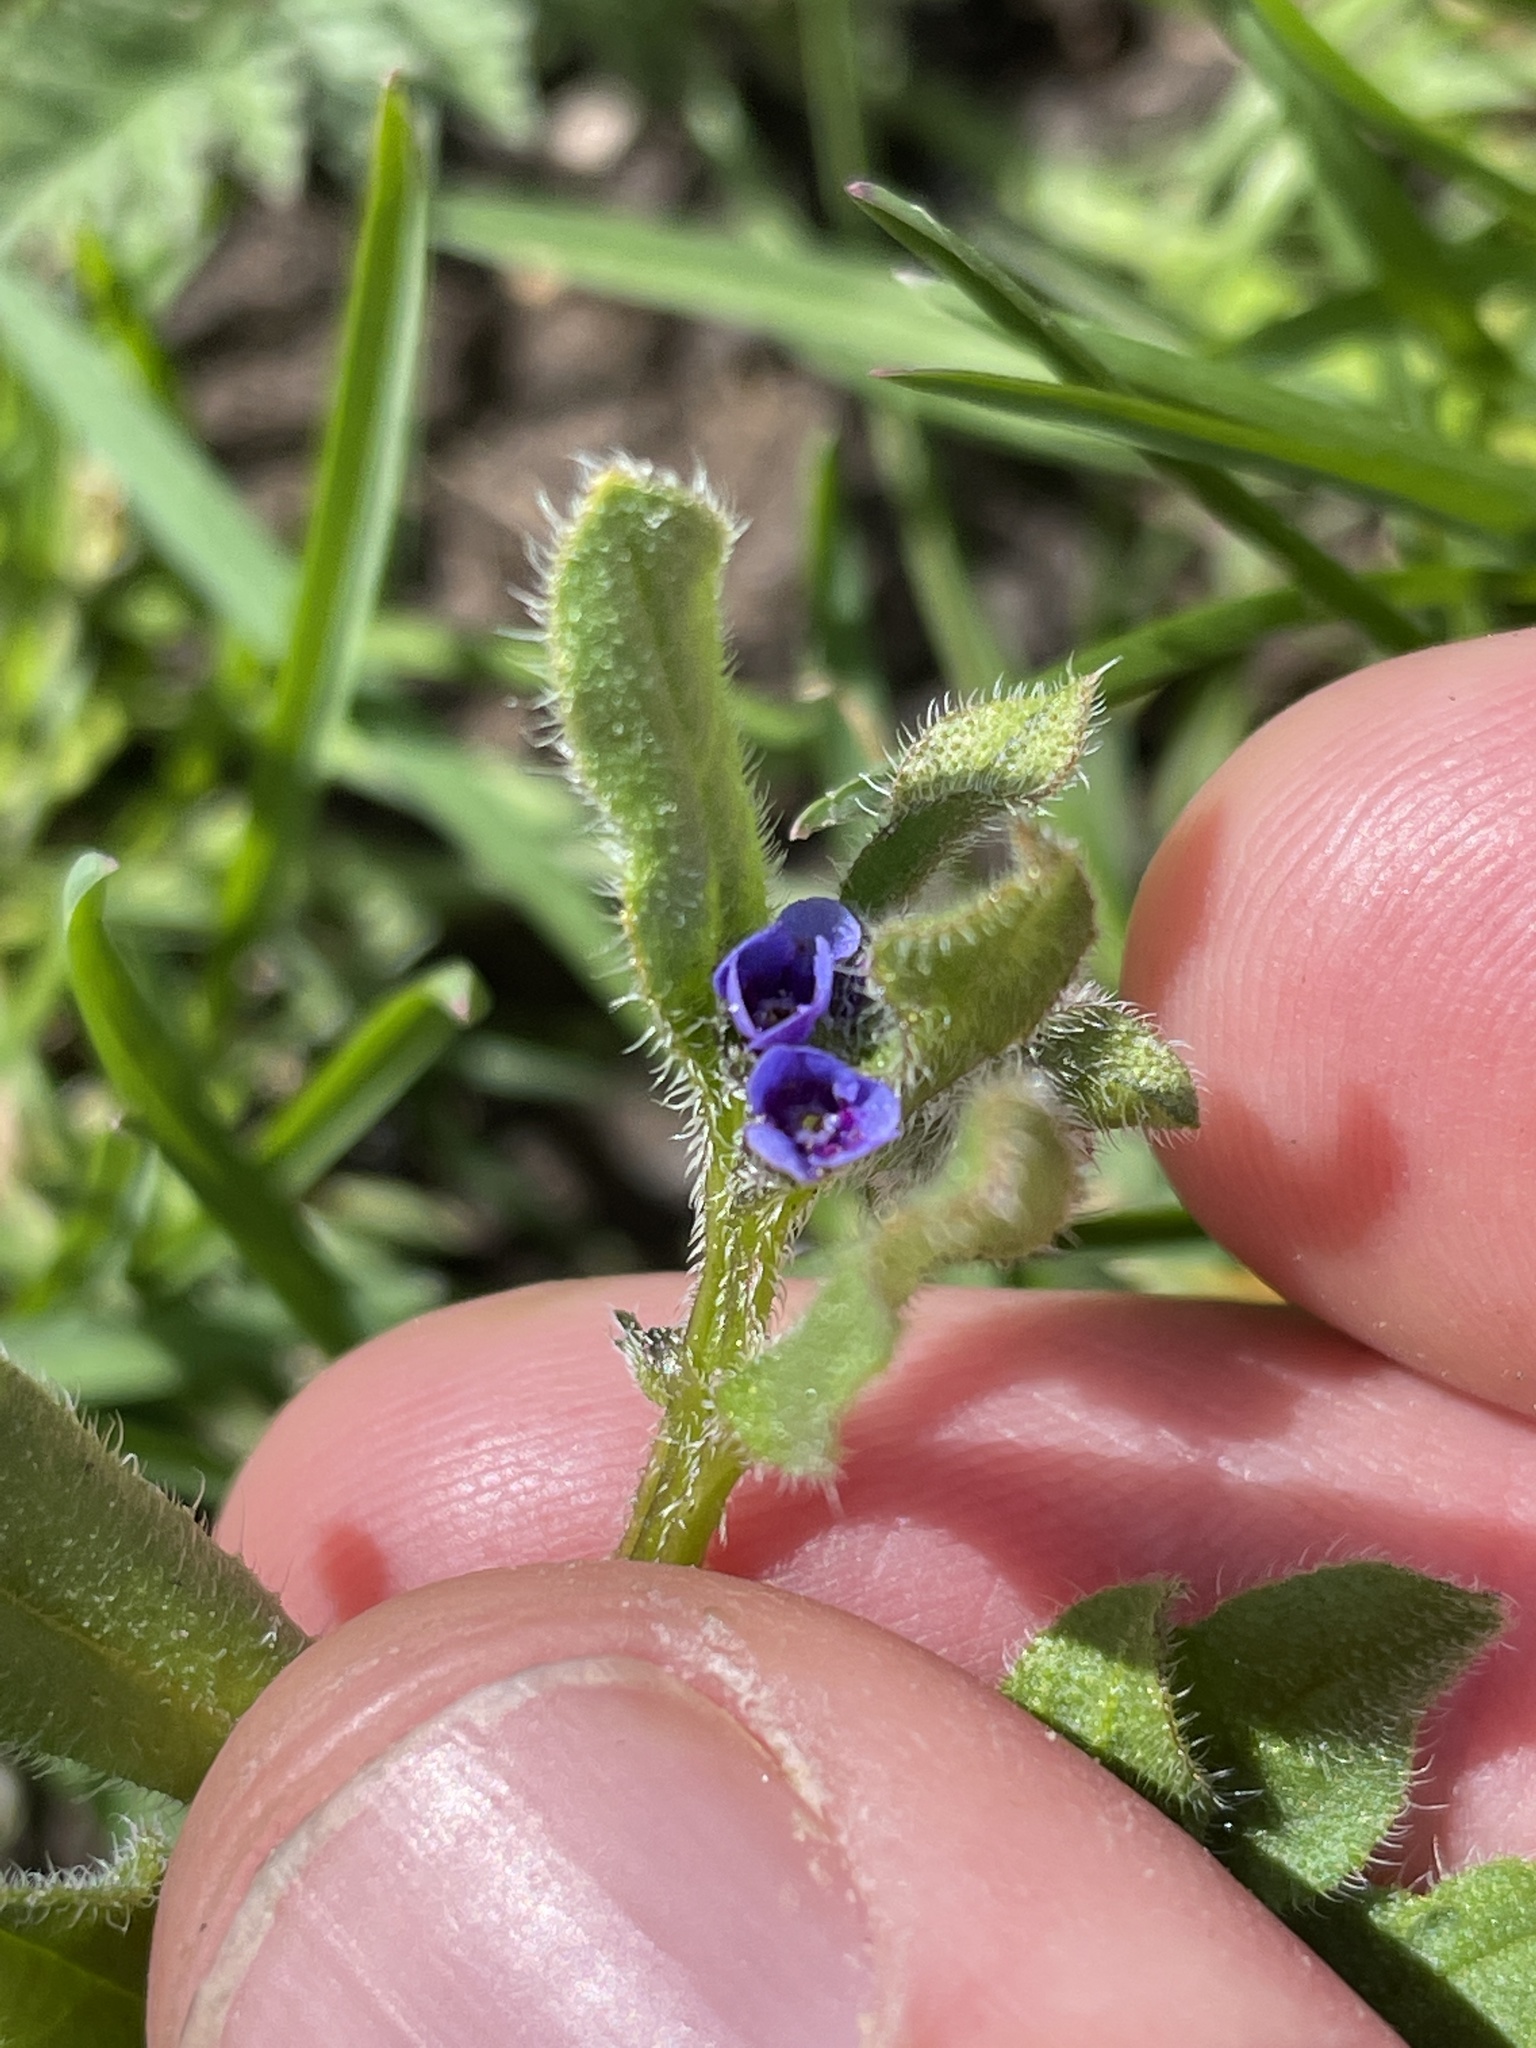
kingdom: Plantae
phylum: Tracheophyta
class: Magnoliopsida
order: Boraginales
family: Boraginaceae
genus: Asperugo
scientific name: Asperugo procumbens
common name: Madwort
